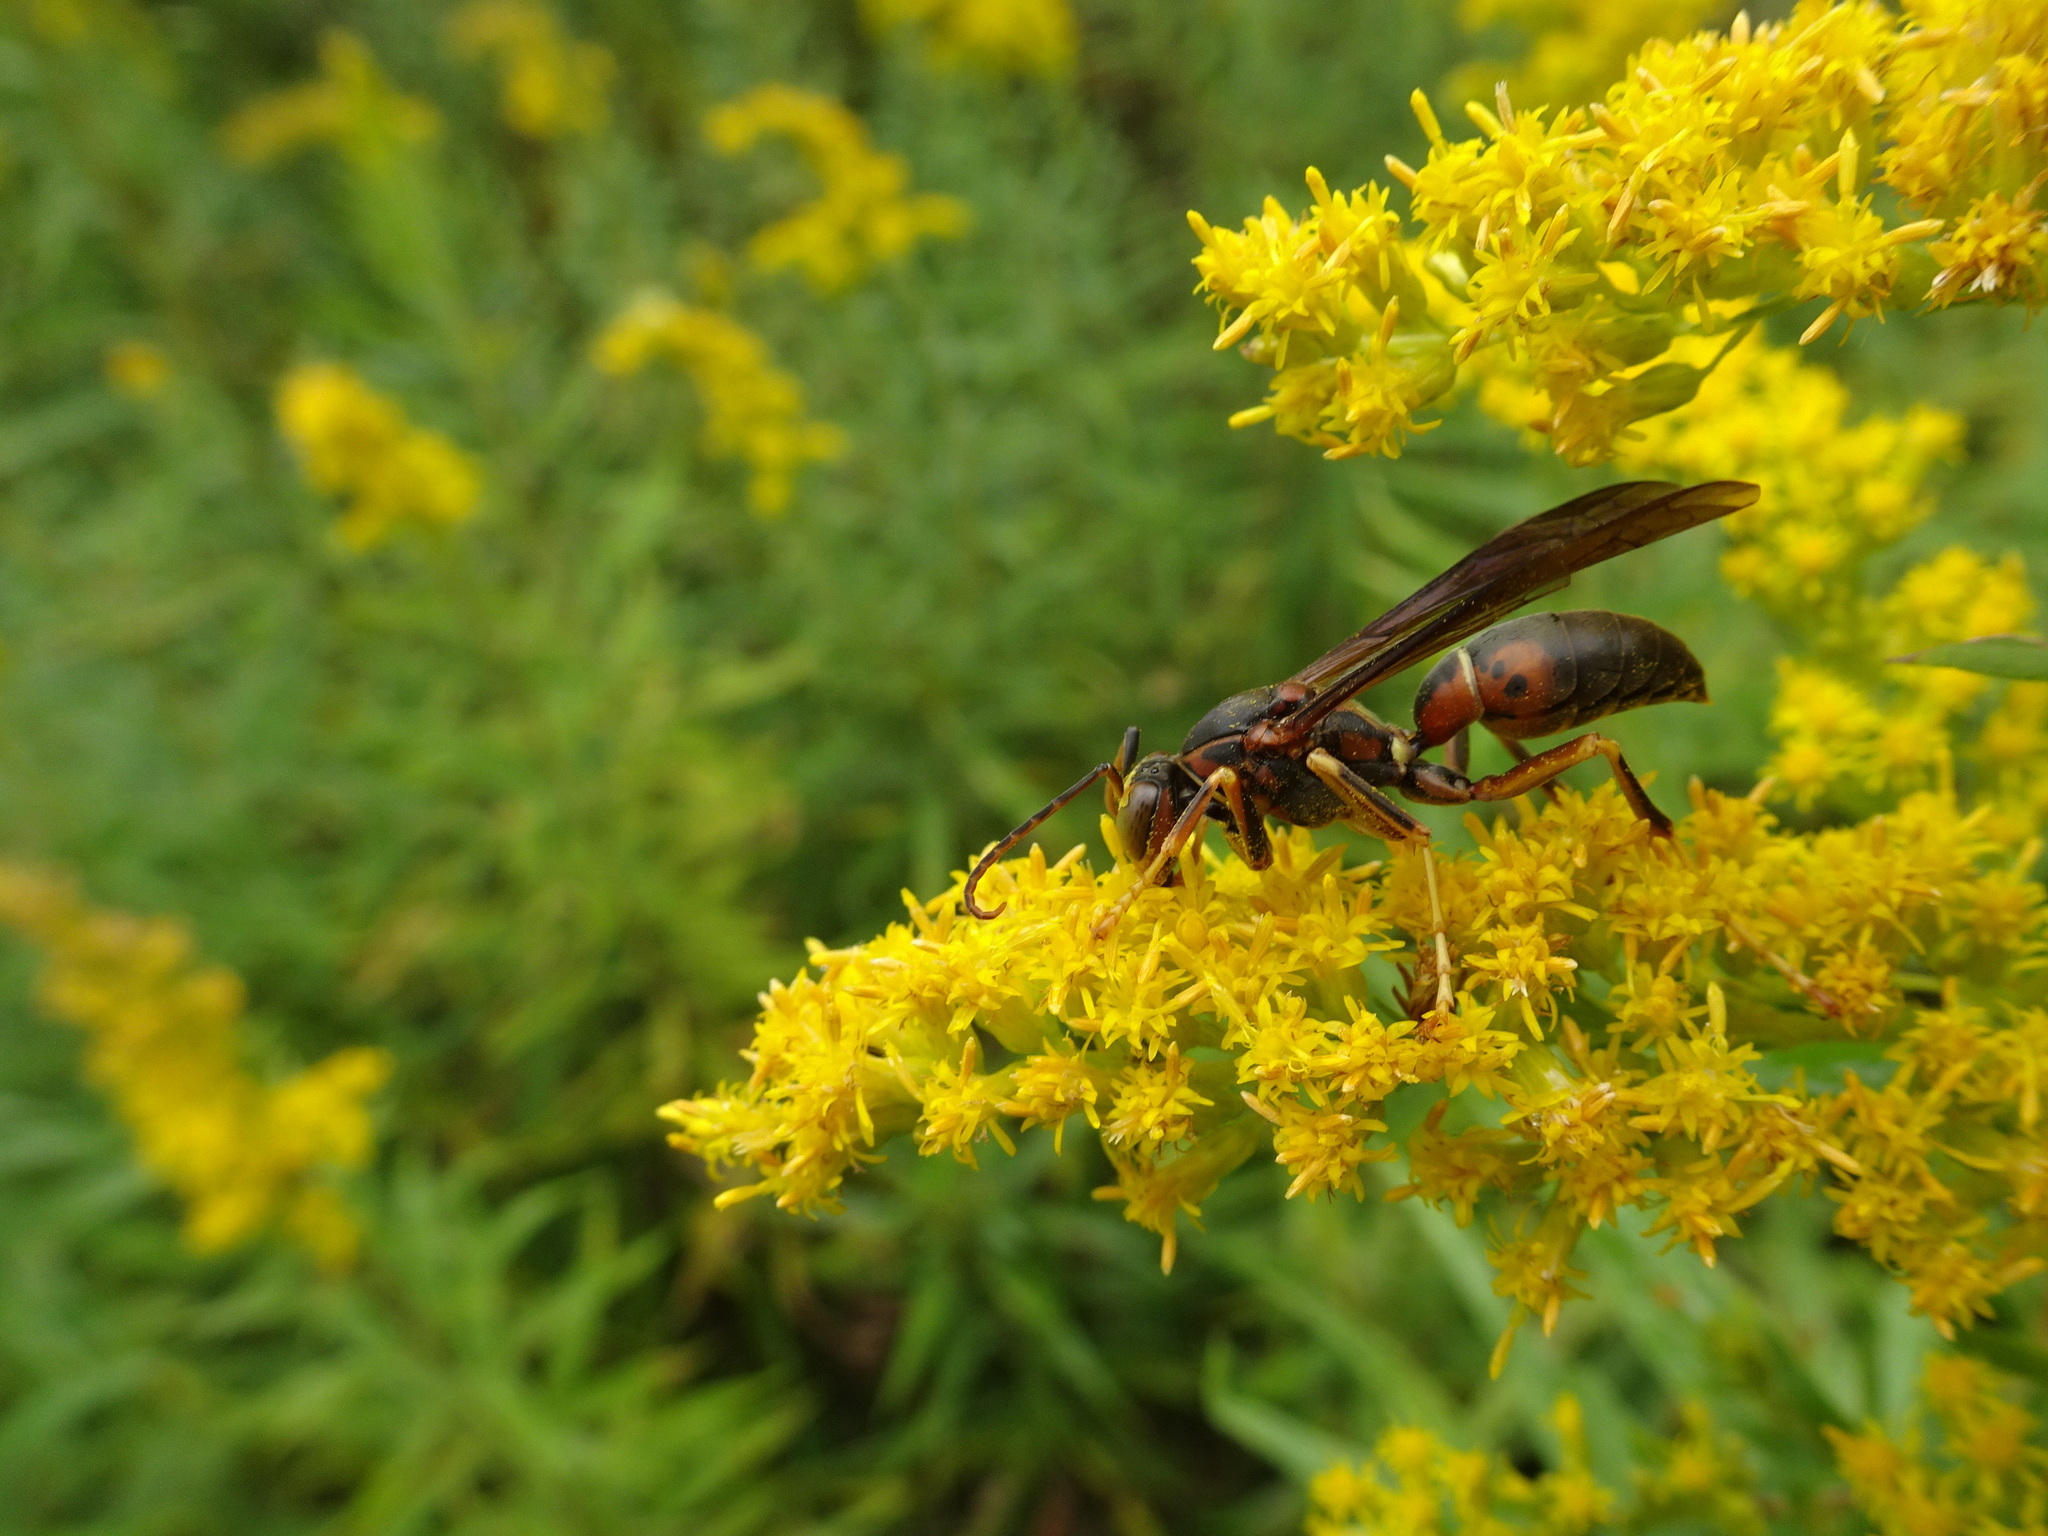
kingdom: Animalia
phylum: Arthropoda
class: Insecta
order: Hymenoptera
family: Eumenidae
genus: Polistes
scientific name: Polistes metricus
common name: Metric paper wasp
